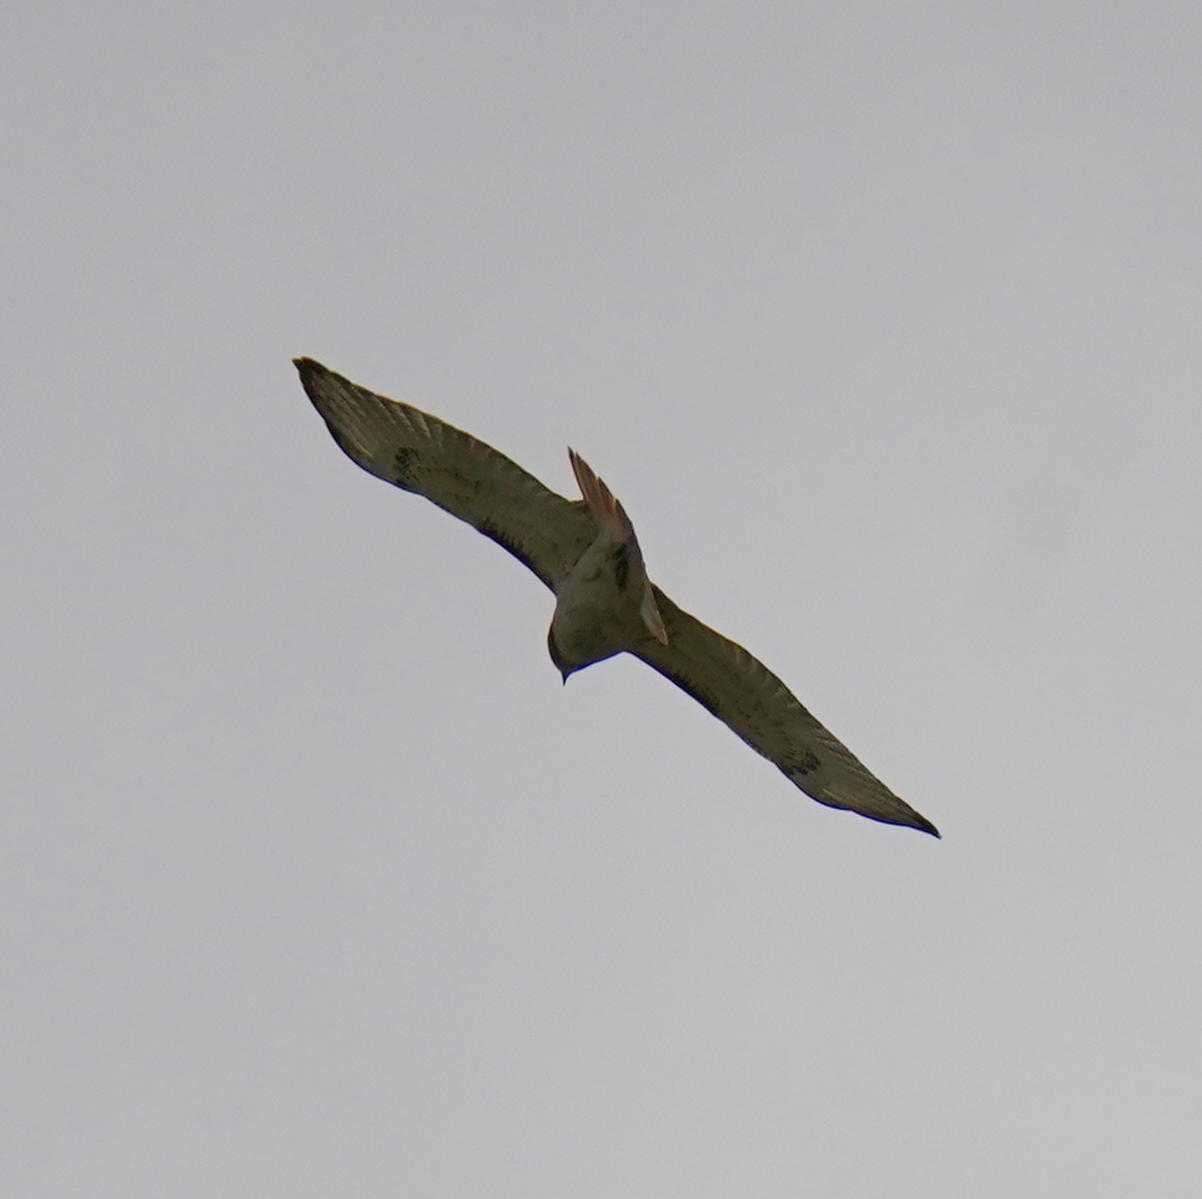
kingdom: Animalia
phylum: Chordata
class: Aves
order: Accipitriformes
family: Accipitridae
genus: Buteo
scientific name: Buteo jamaicensis
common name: Red-tailed hawk
